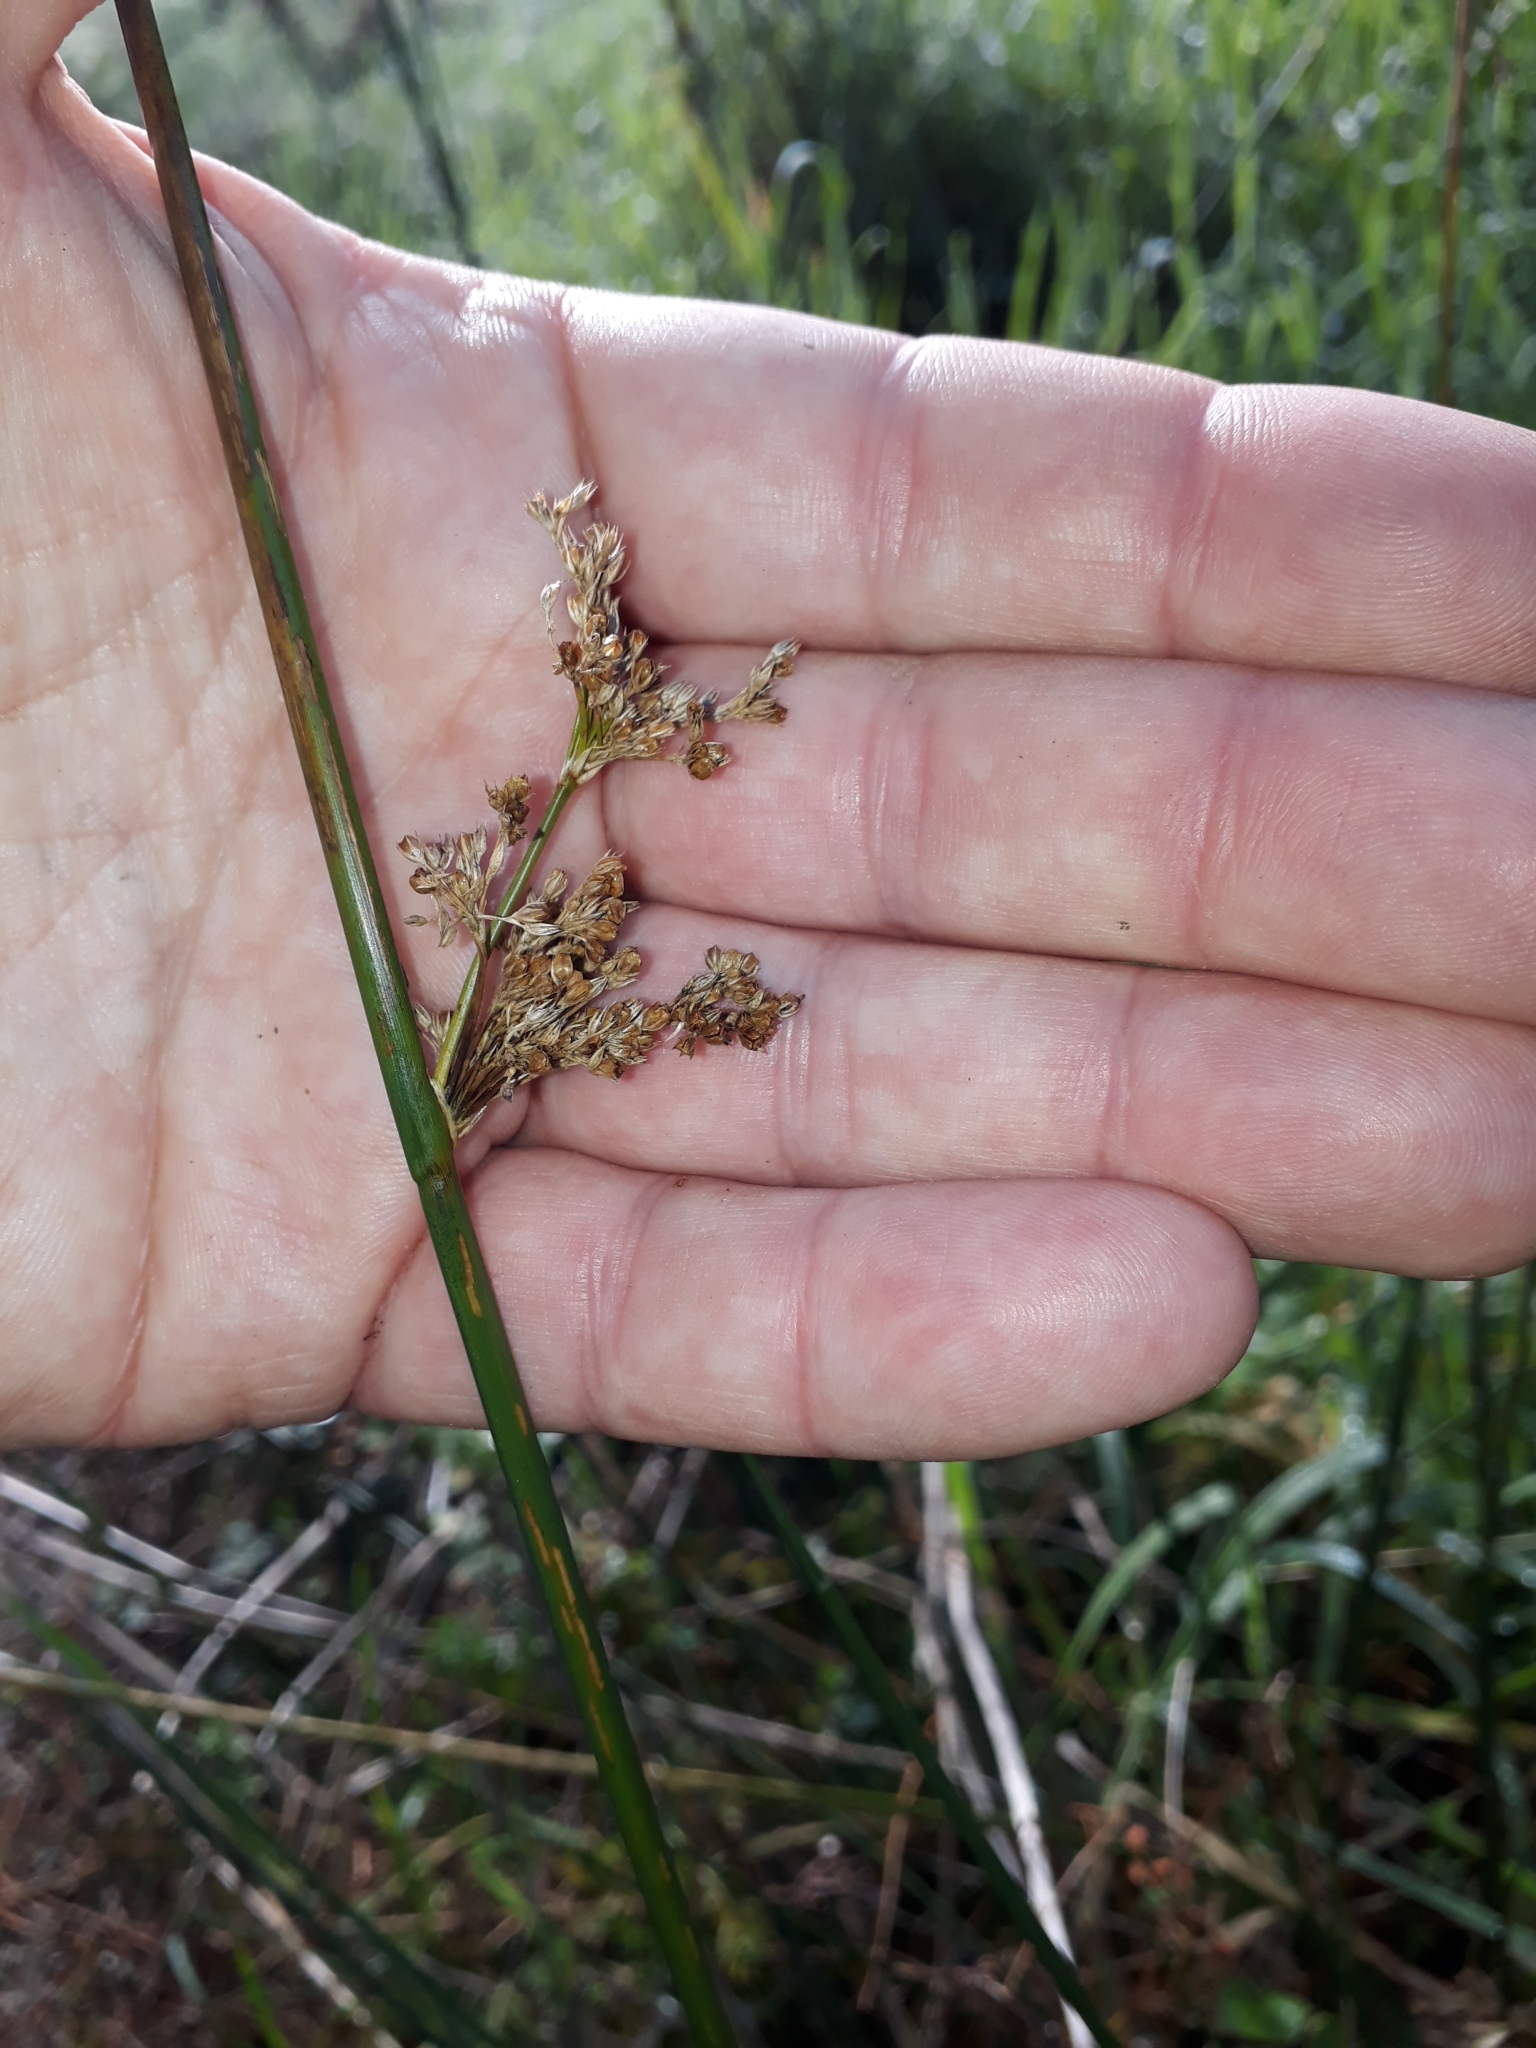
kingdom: Plantae
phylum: Tracheophyta
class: Liliopsida
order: Poales
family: Juncaceae
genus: Juncus
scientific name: Juncus effusus
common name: Soft rush
